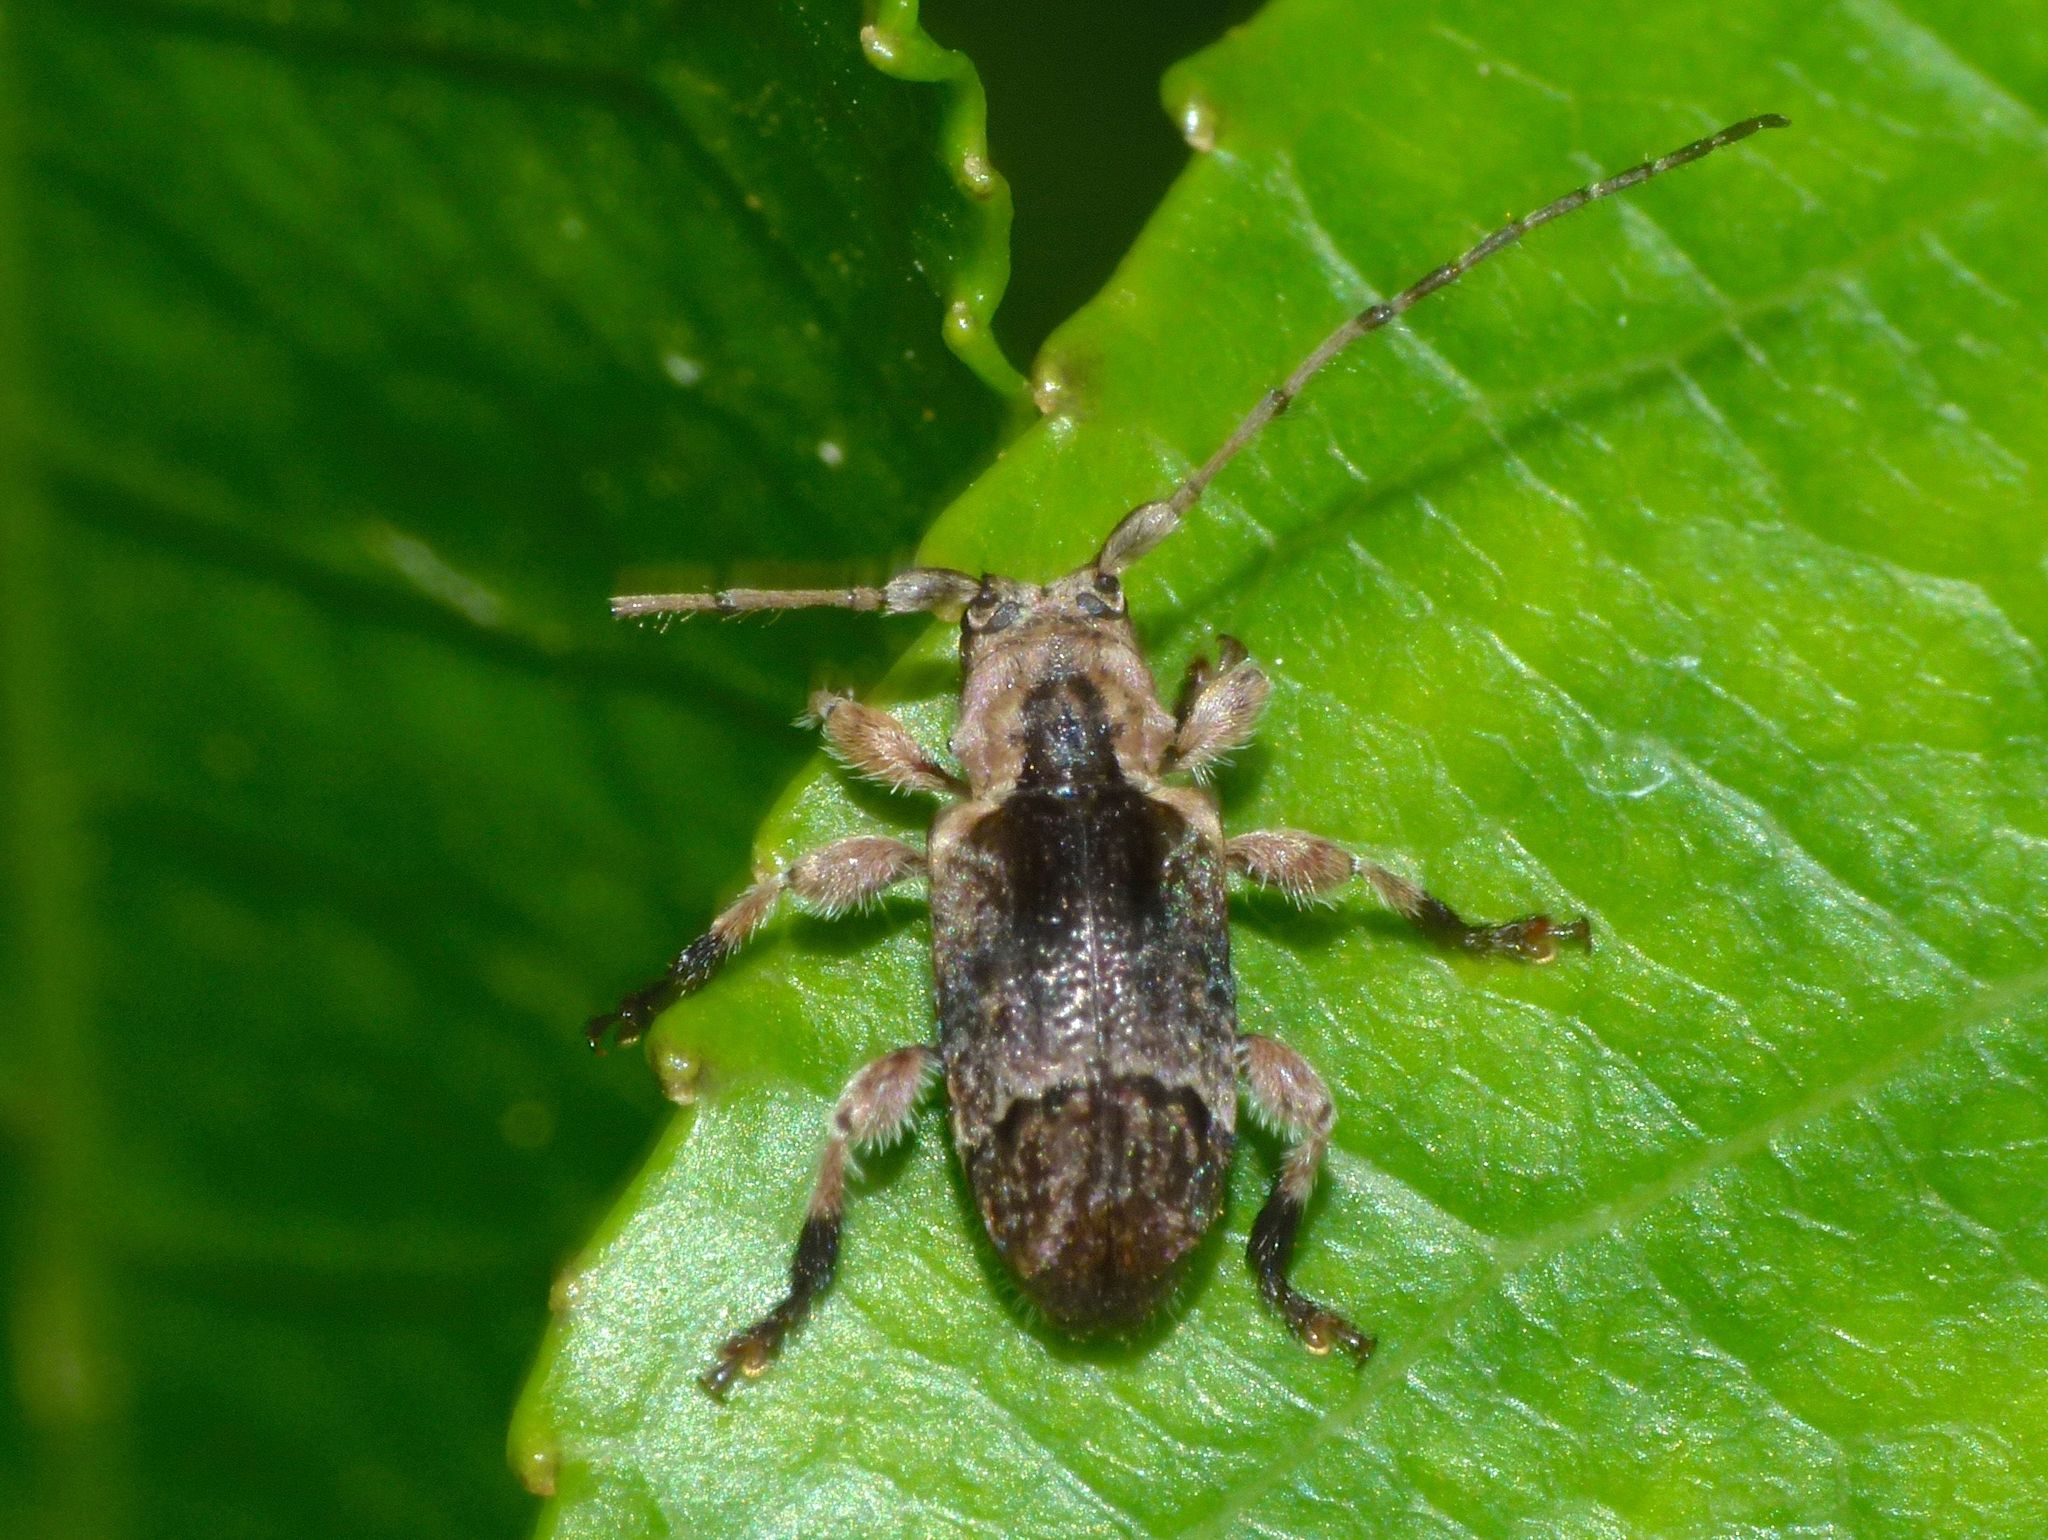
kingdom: Animalia
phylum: Arthropoda
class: Insecta
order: Coleoptera
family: Cerambycidae
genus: Hybolasius
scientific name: Hybolasius cristus
